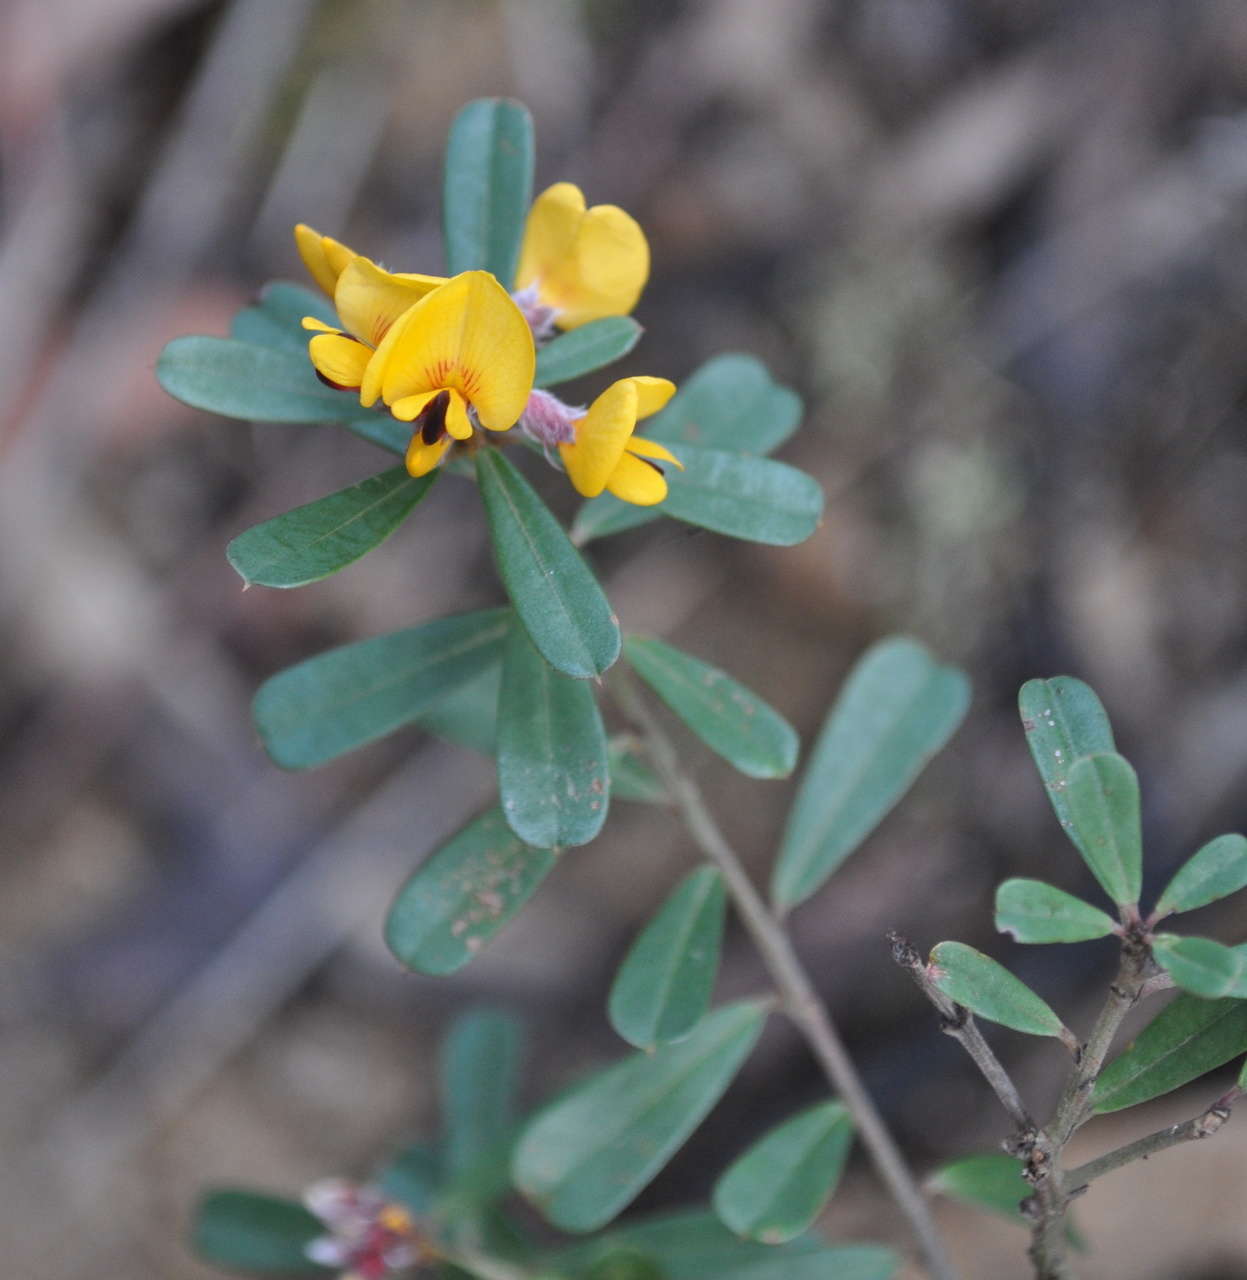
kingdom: Plantae
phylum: Tracheophyta
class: Magnoliopsida
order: Fabales
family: Fabaceae
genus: Pultenaea
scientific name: Pultenaea daphnoides
